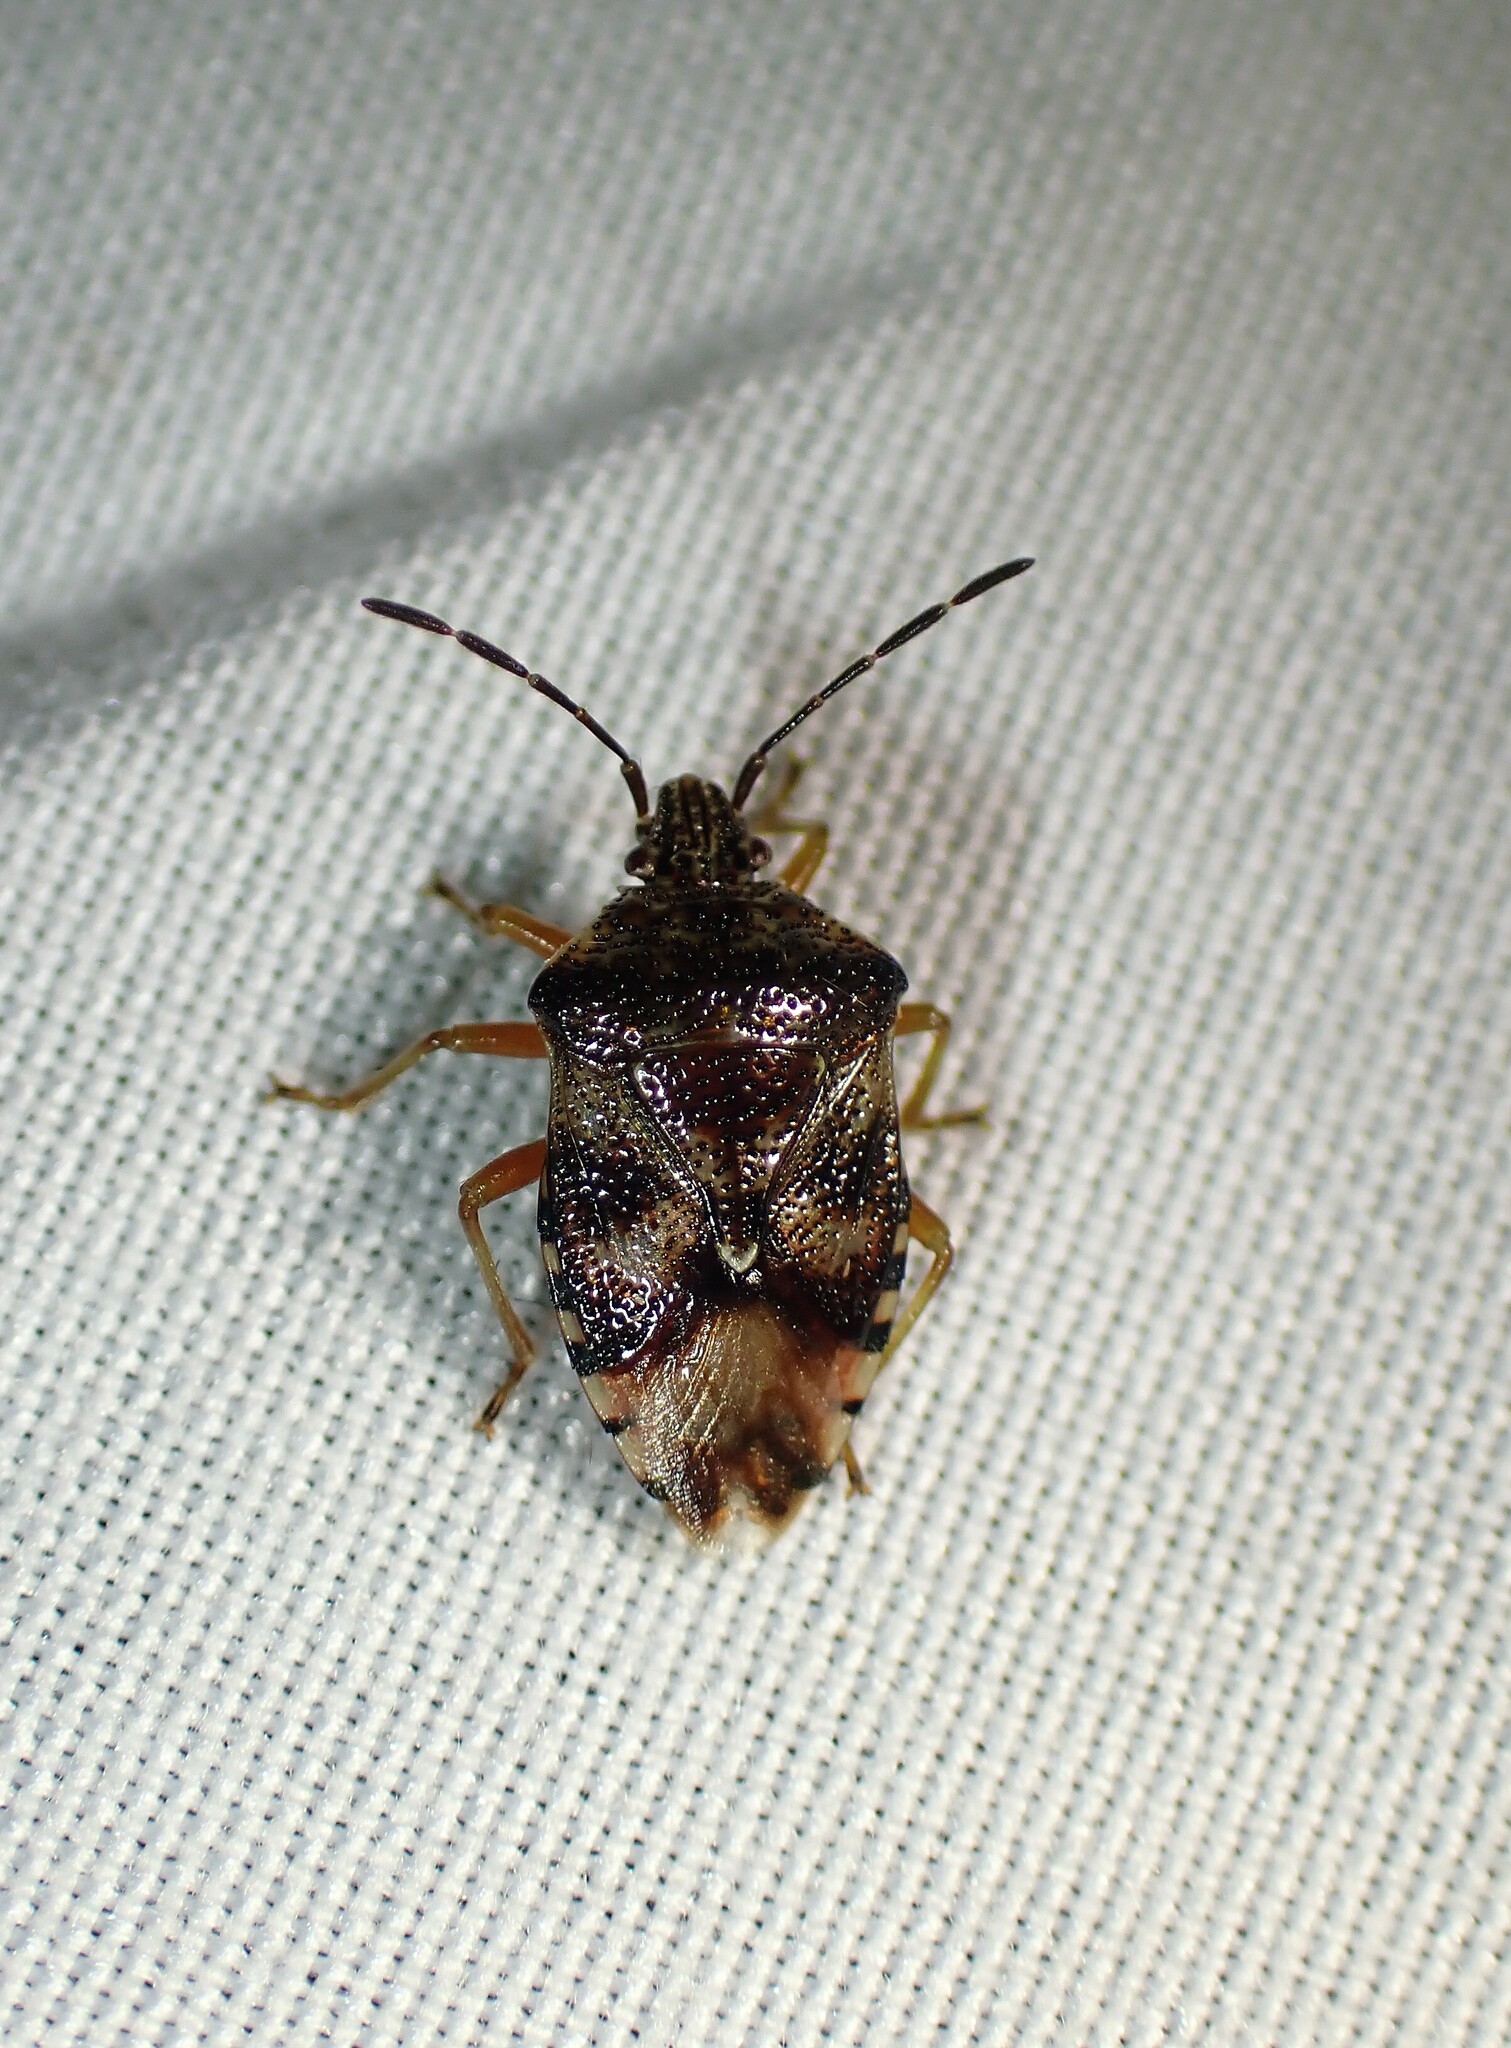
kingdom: Animalia
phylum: Arthropoda
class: Insecta
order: Hemiptera
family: Acanthosomatidae
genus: Elasmucha
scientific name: Elasmucha lateralis
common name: Shield bug
